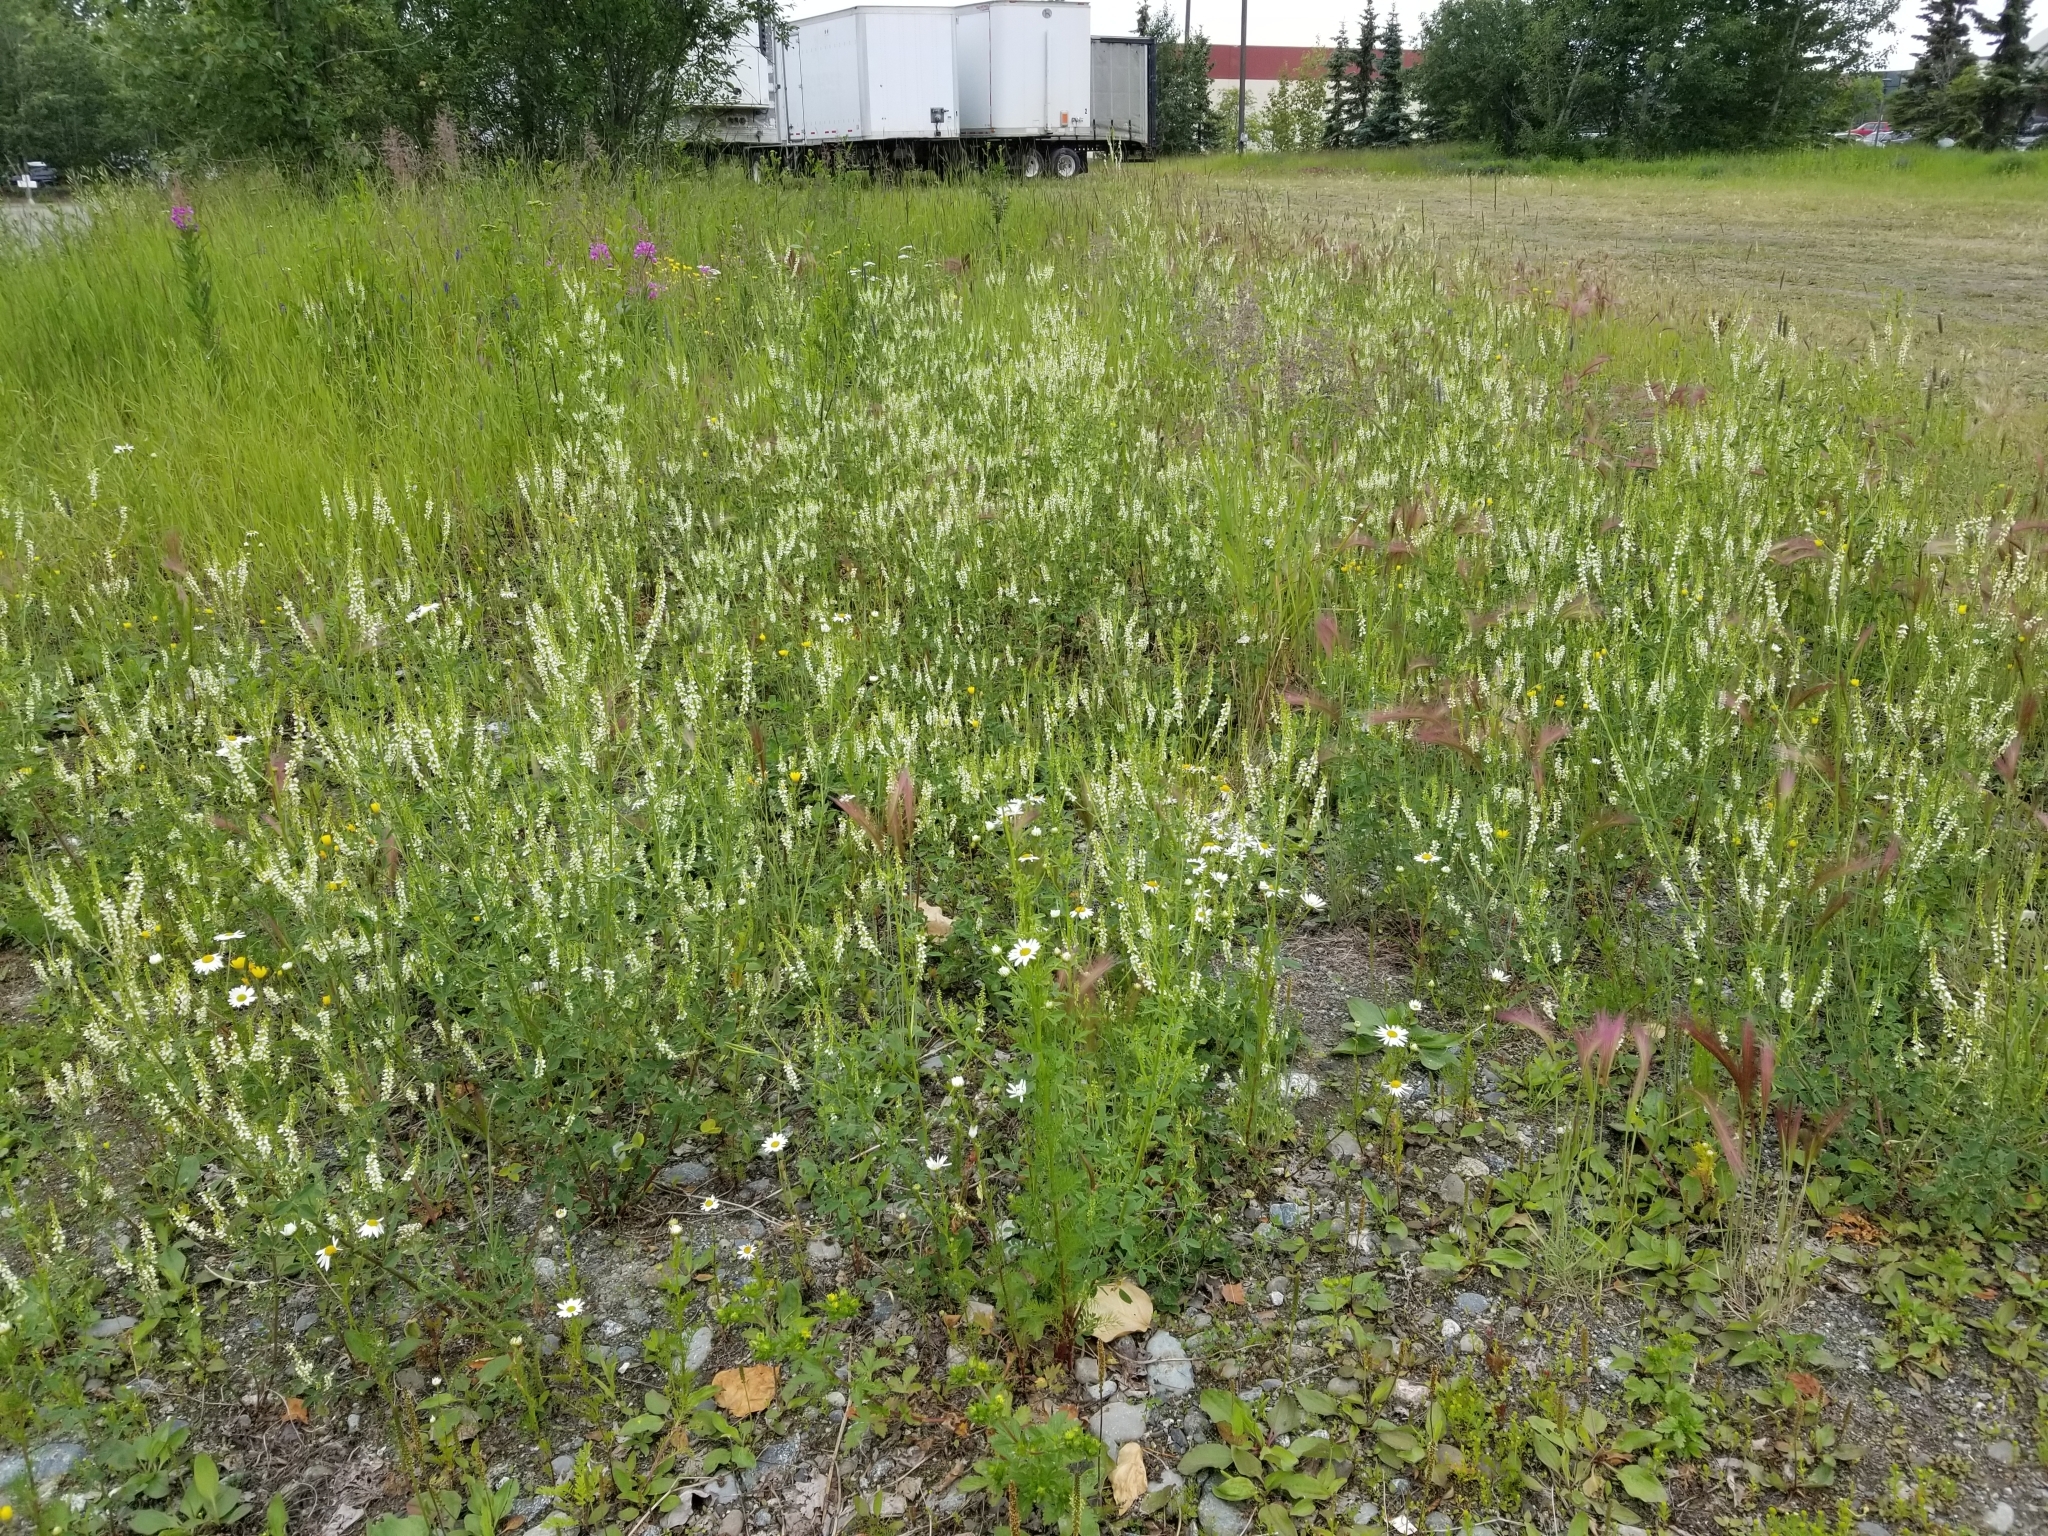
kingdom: Plantae
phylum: Tracheophyta
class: Magnoliopsida
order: Fabales
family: Fabaceae
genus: Melilotus
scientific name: Melilotus albus
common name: White melilot
